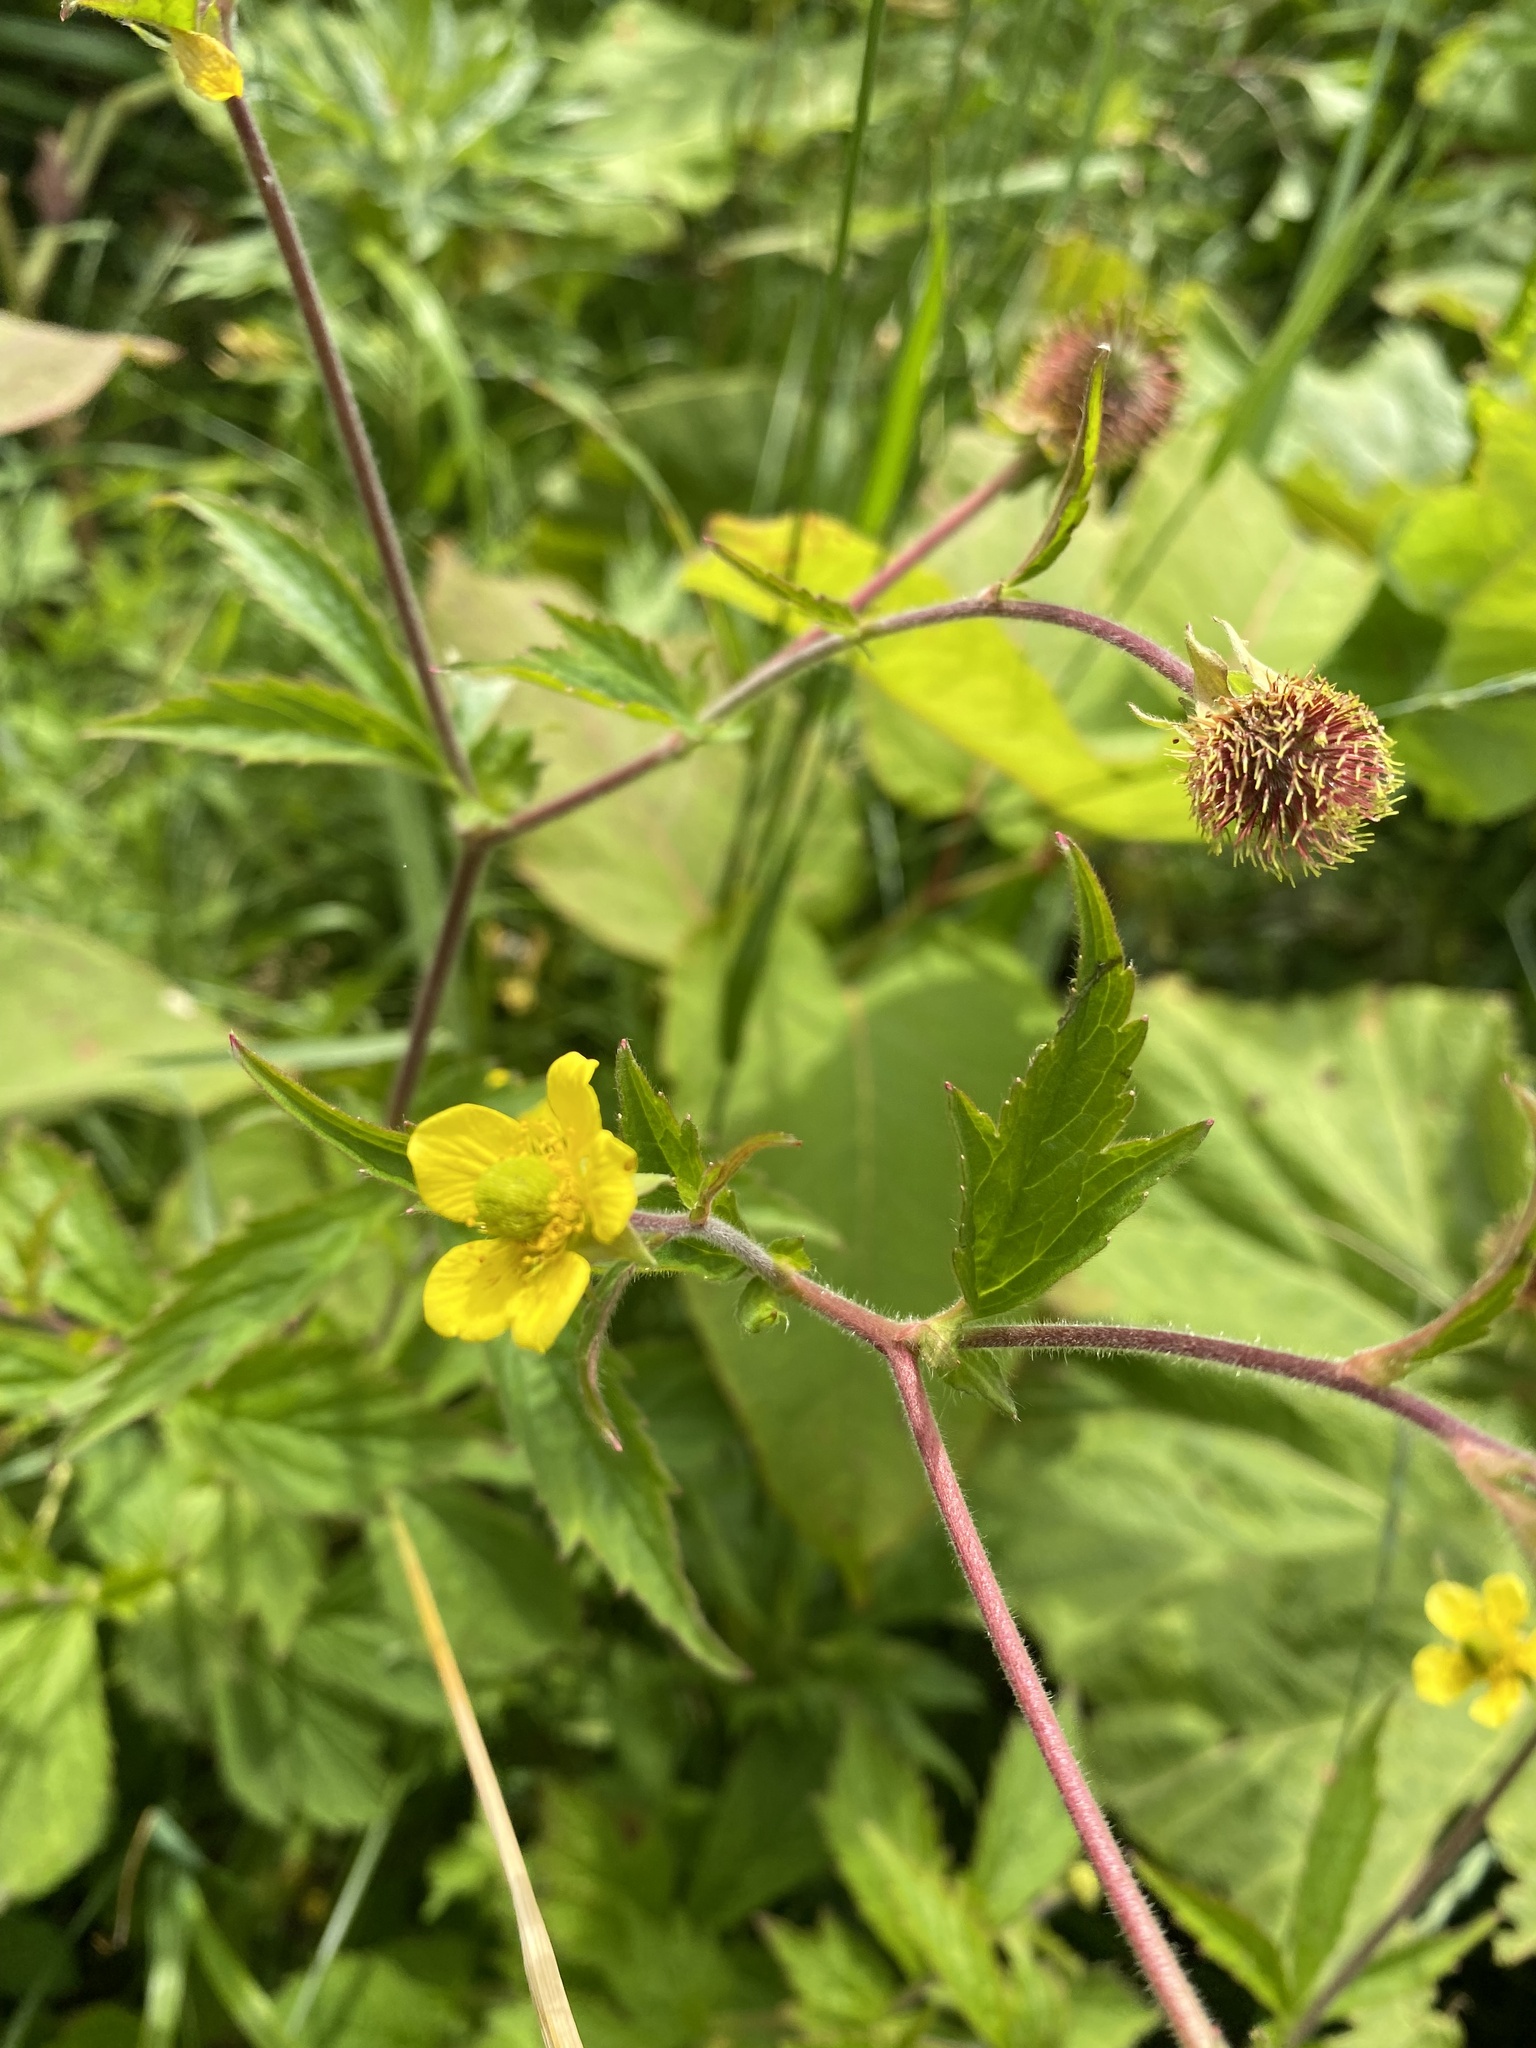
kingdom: Plantae
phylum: Tracheophyta
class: Magnoliopsida
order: Rosales
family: Rosaceae
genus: Geum
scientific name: Geum aleppicum
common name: Yellow avens
